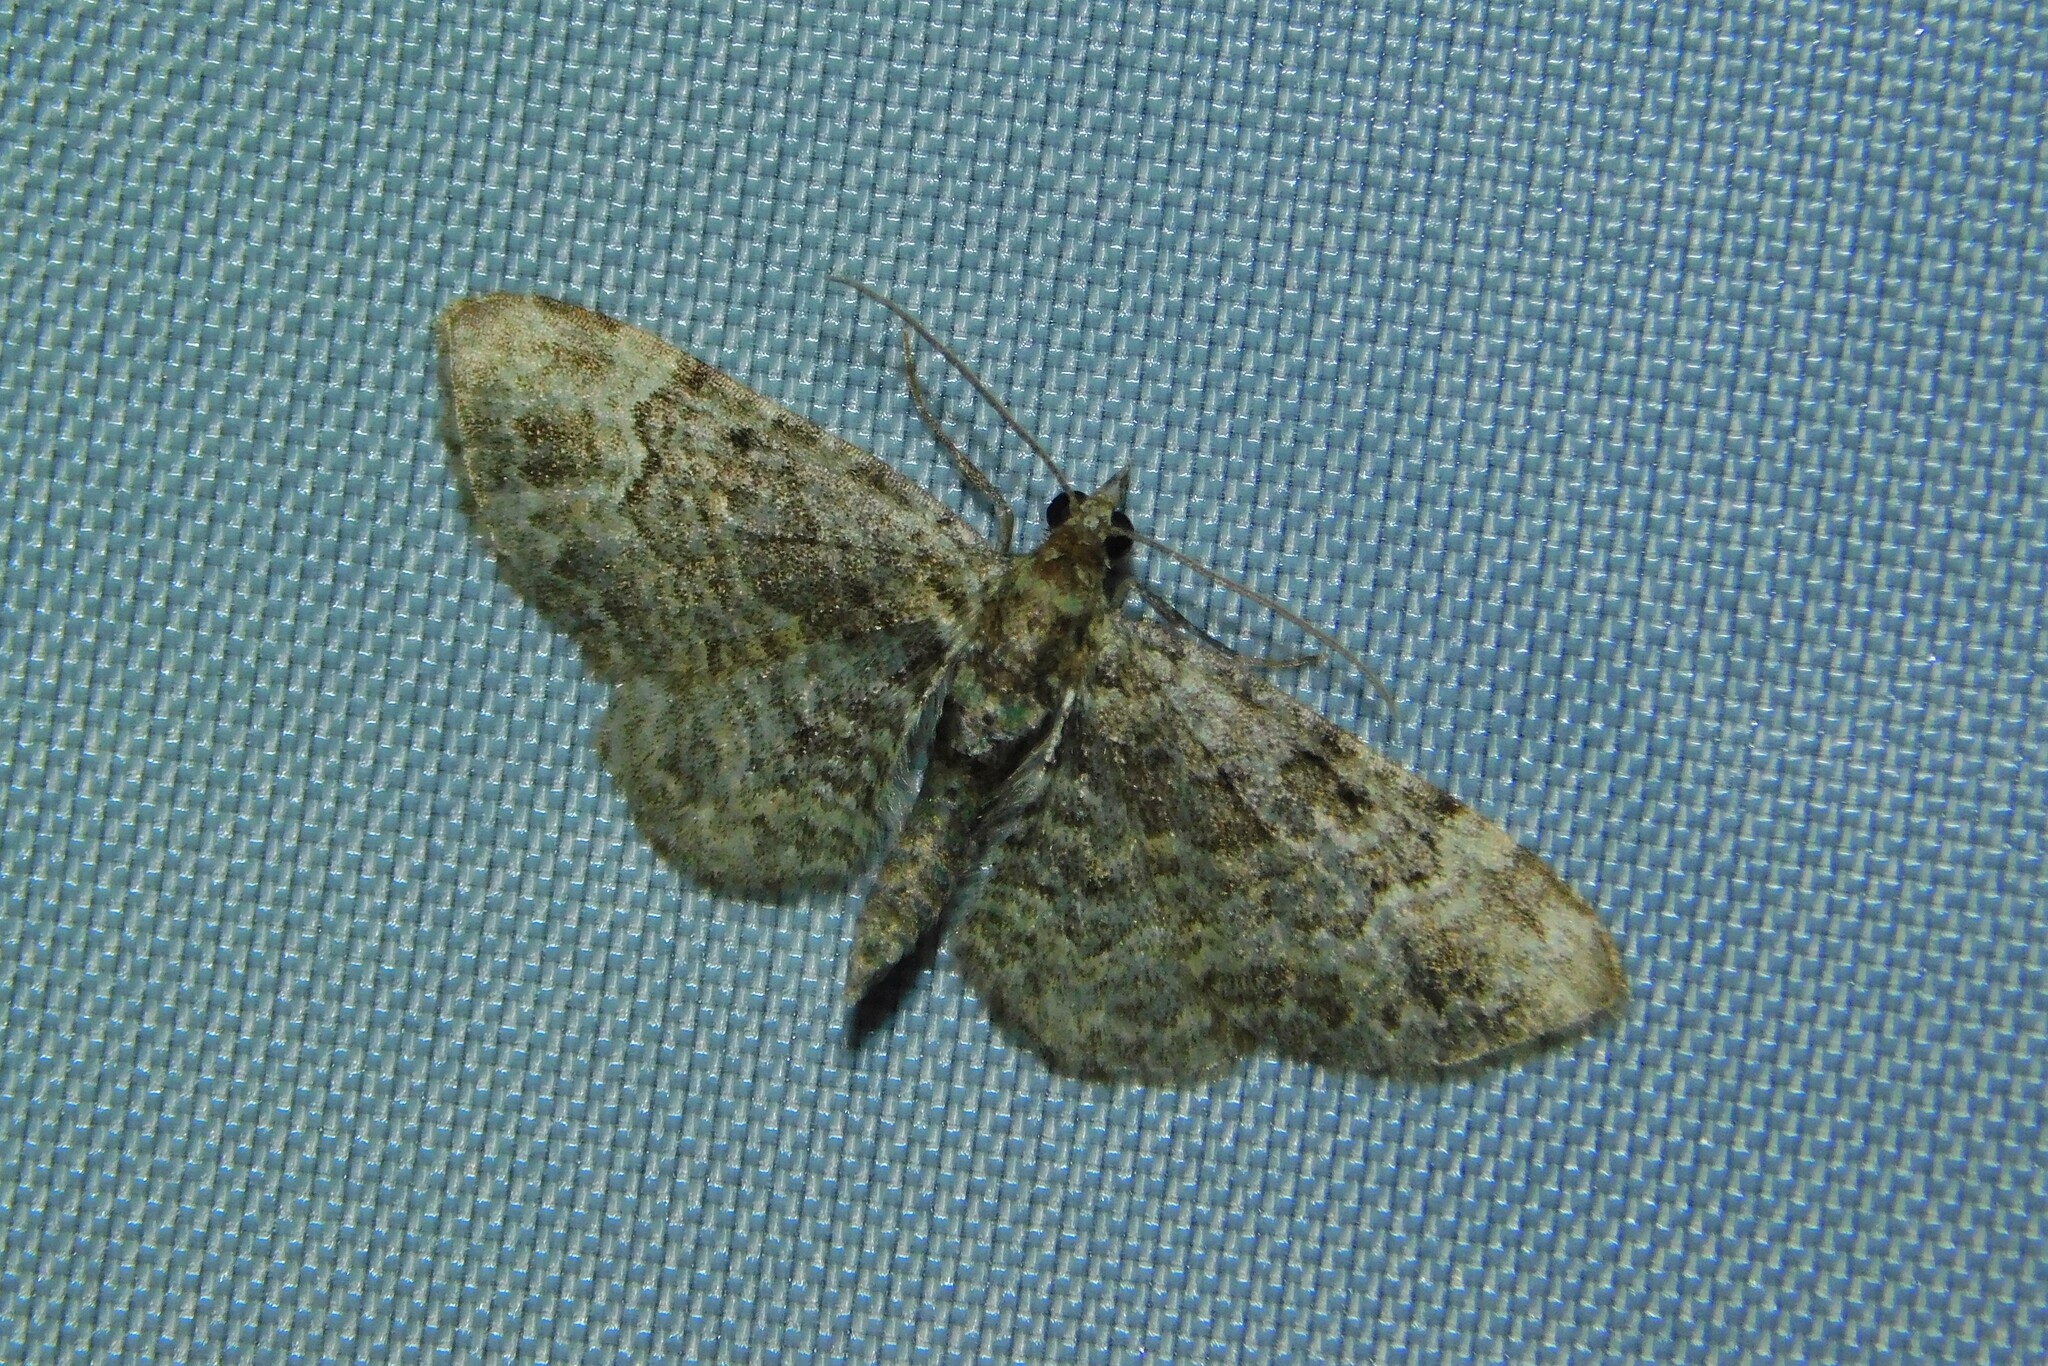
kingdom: Animalia
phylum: Arthropoda
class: Insecta
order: Lepidoptera
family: Geometridae
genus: Pasiphila
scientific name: Pasiphila rectangulata
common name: Green pug
